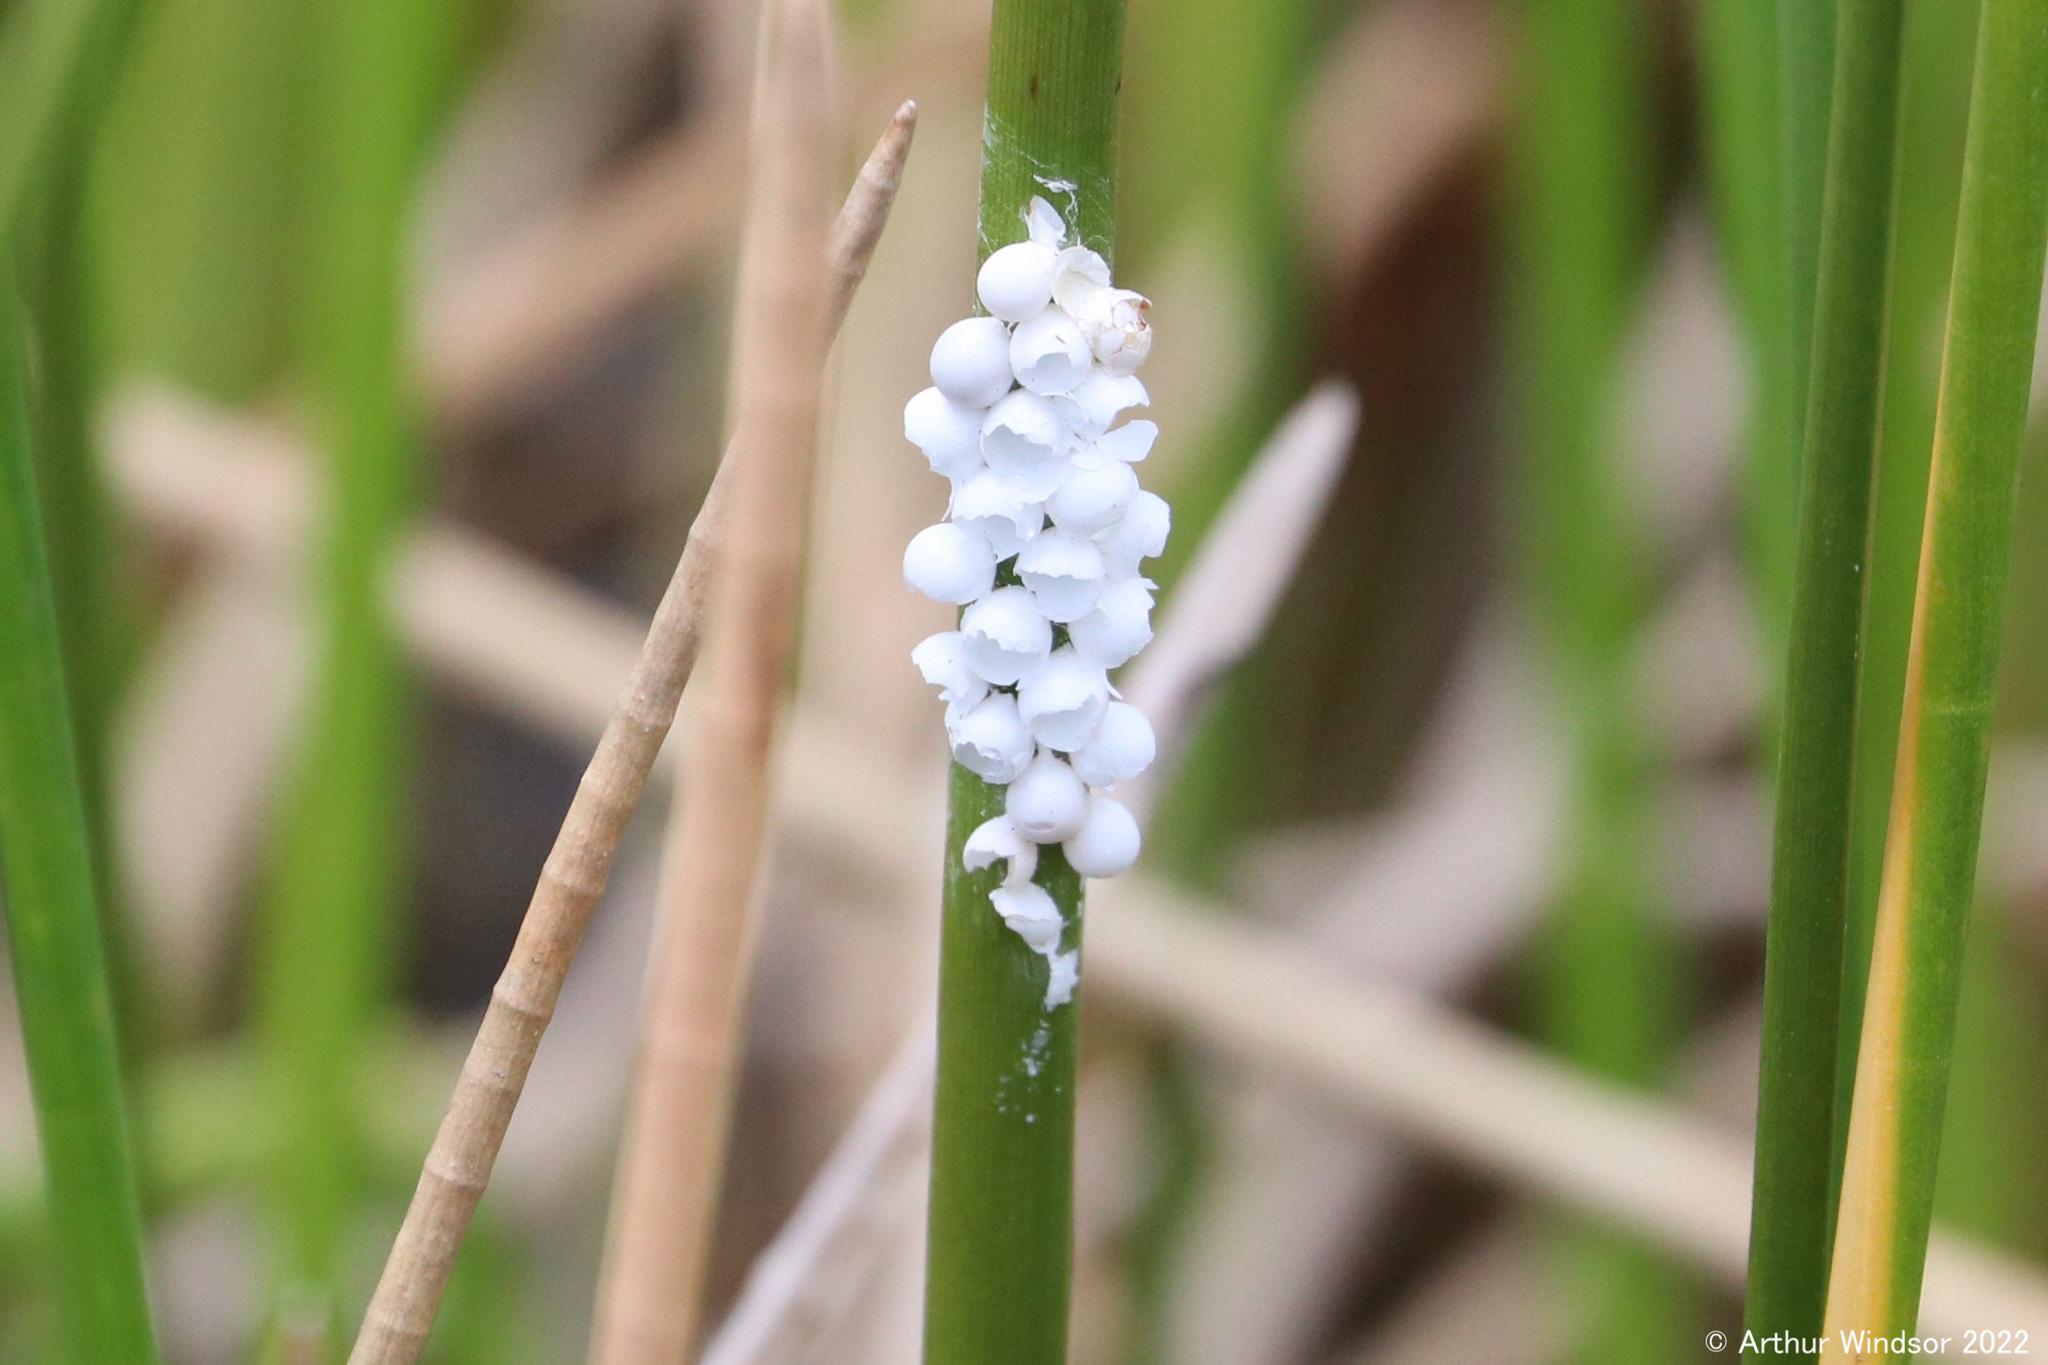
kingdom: Animalia
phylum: Mollusca
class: Gastropoda
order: Architaenioglossa
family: Ampullariidae
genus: Pomacea
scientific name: Pomacea paludosa
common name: Florida applesnail
